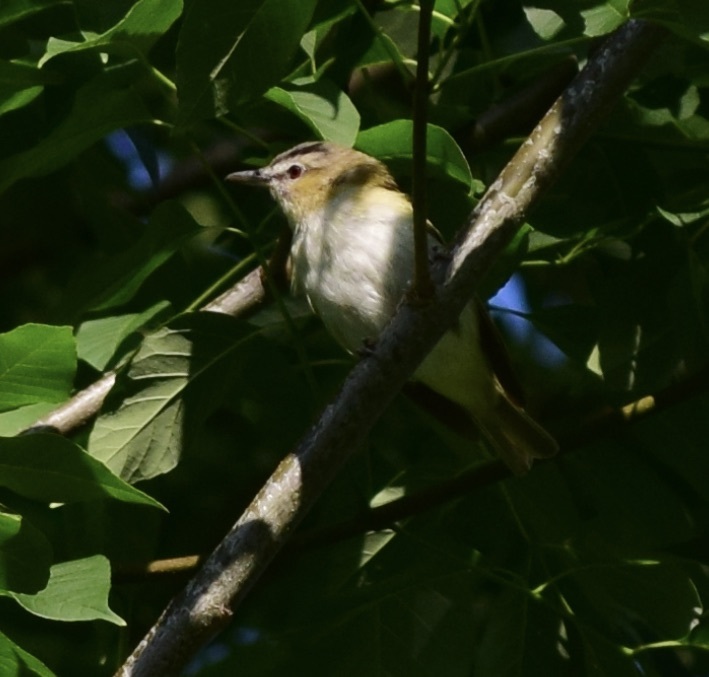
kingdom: Animalia
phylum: Chordata
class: Aves
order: Passeriformes
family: Vireonidae
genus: Vireo
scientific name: Vireo olivaceus
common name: Red-eyed vireo
